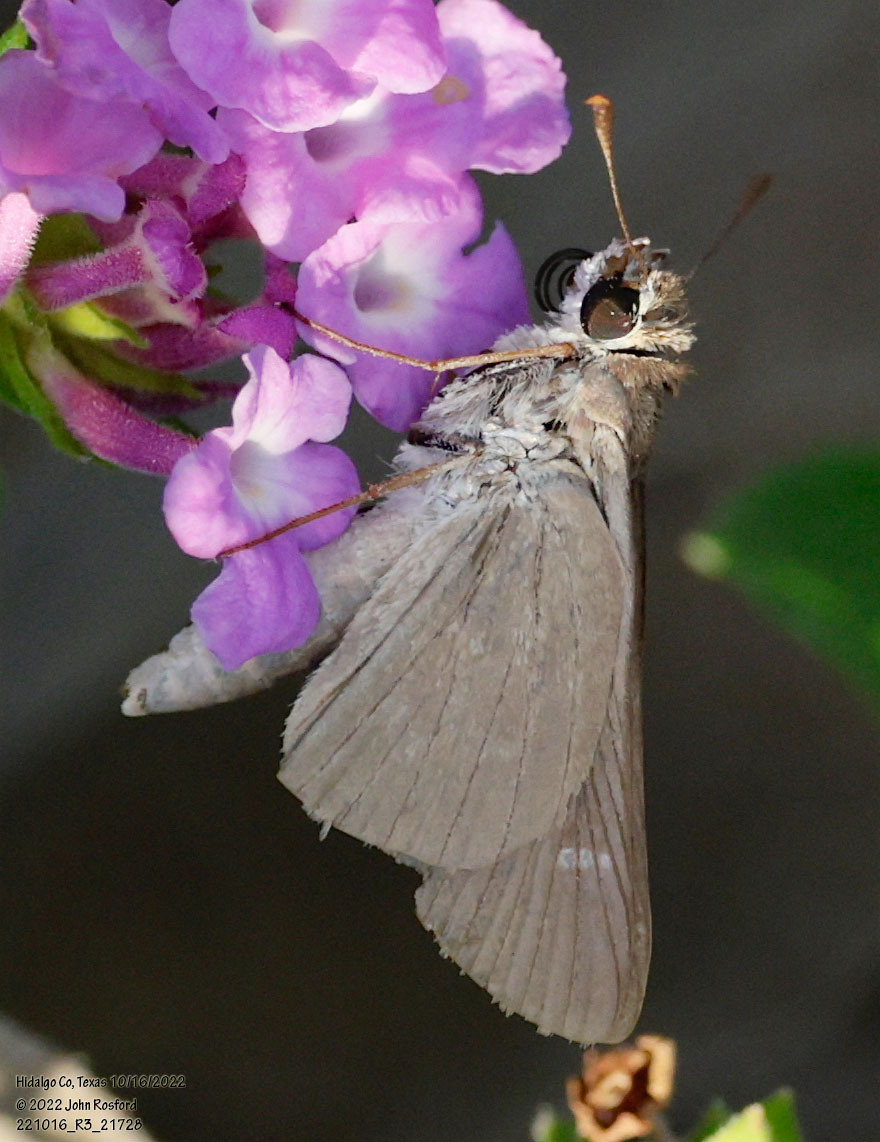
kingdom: Animalia
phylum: Arthropoda
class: Insecta
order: Lepidoptera
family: Hesperiidae
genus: Lerodea
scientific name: Lerodea eufala
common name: Eufala skipper
